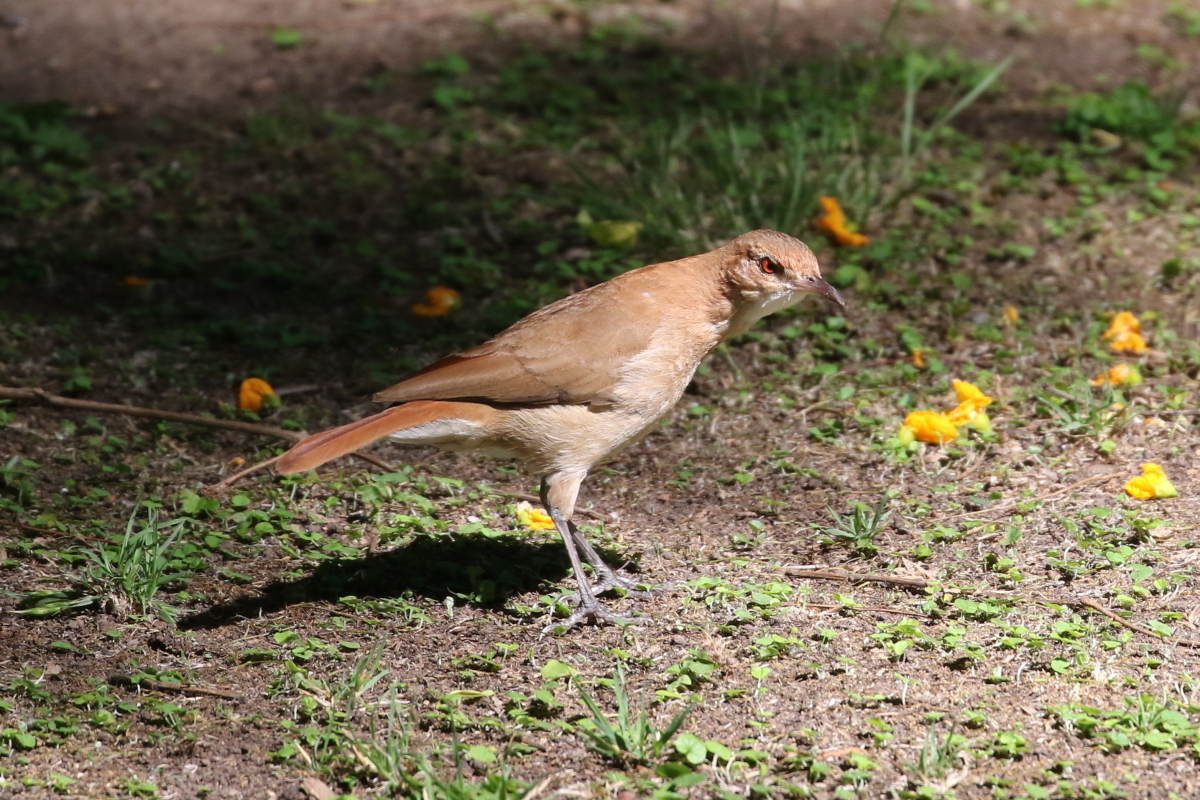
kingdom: Animalia
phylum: Chordata
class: Aves
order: Passeriformes
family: Furnariidae
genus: Furnarius
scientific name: Furnarius rufus
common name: Rufous hornero
